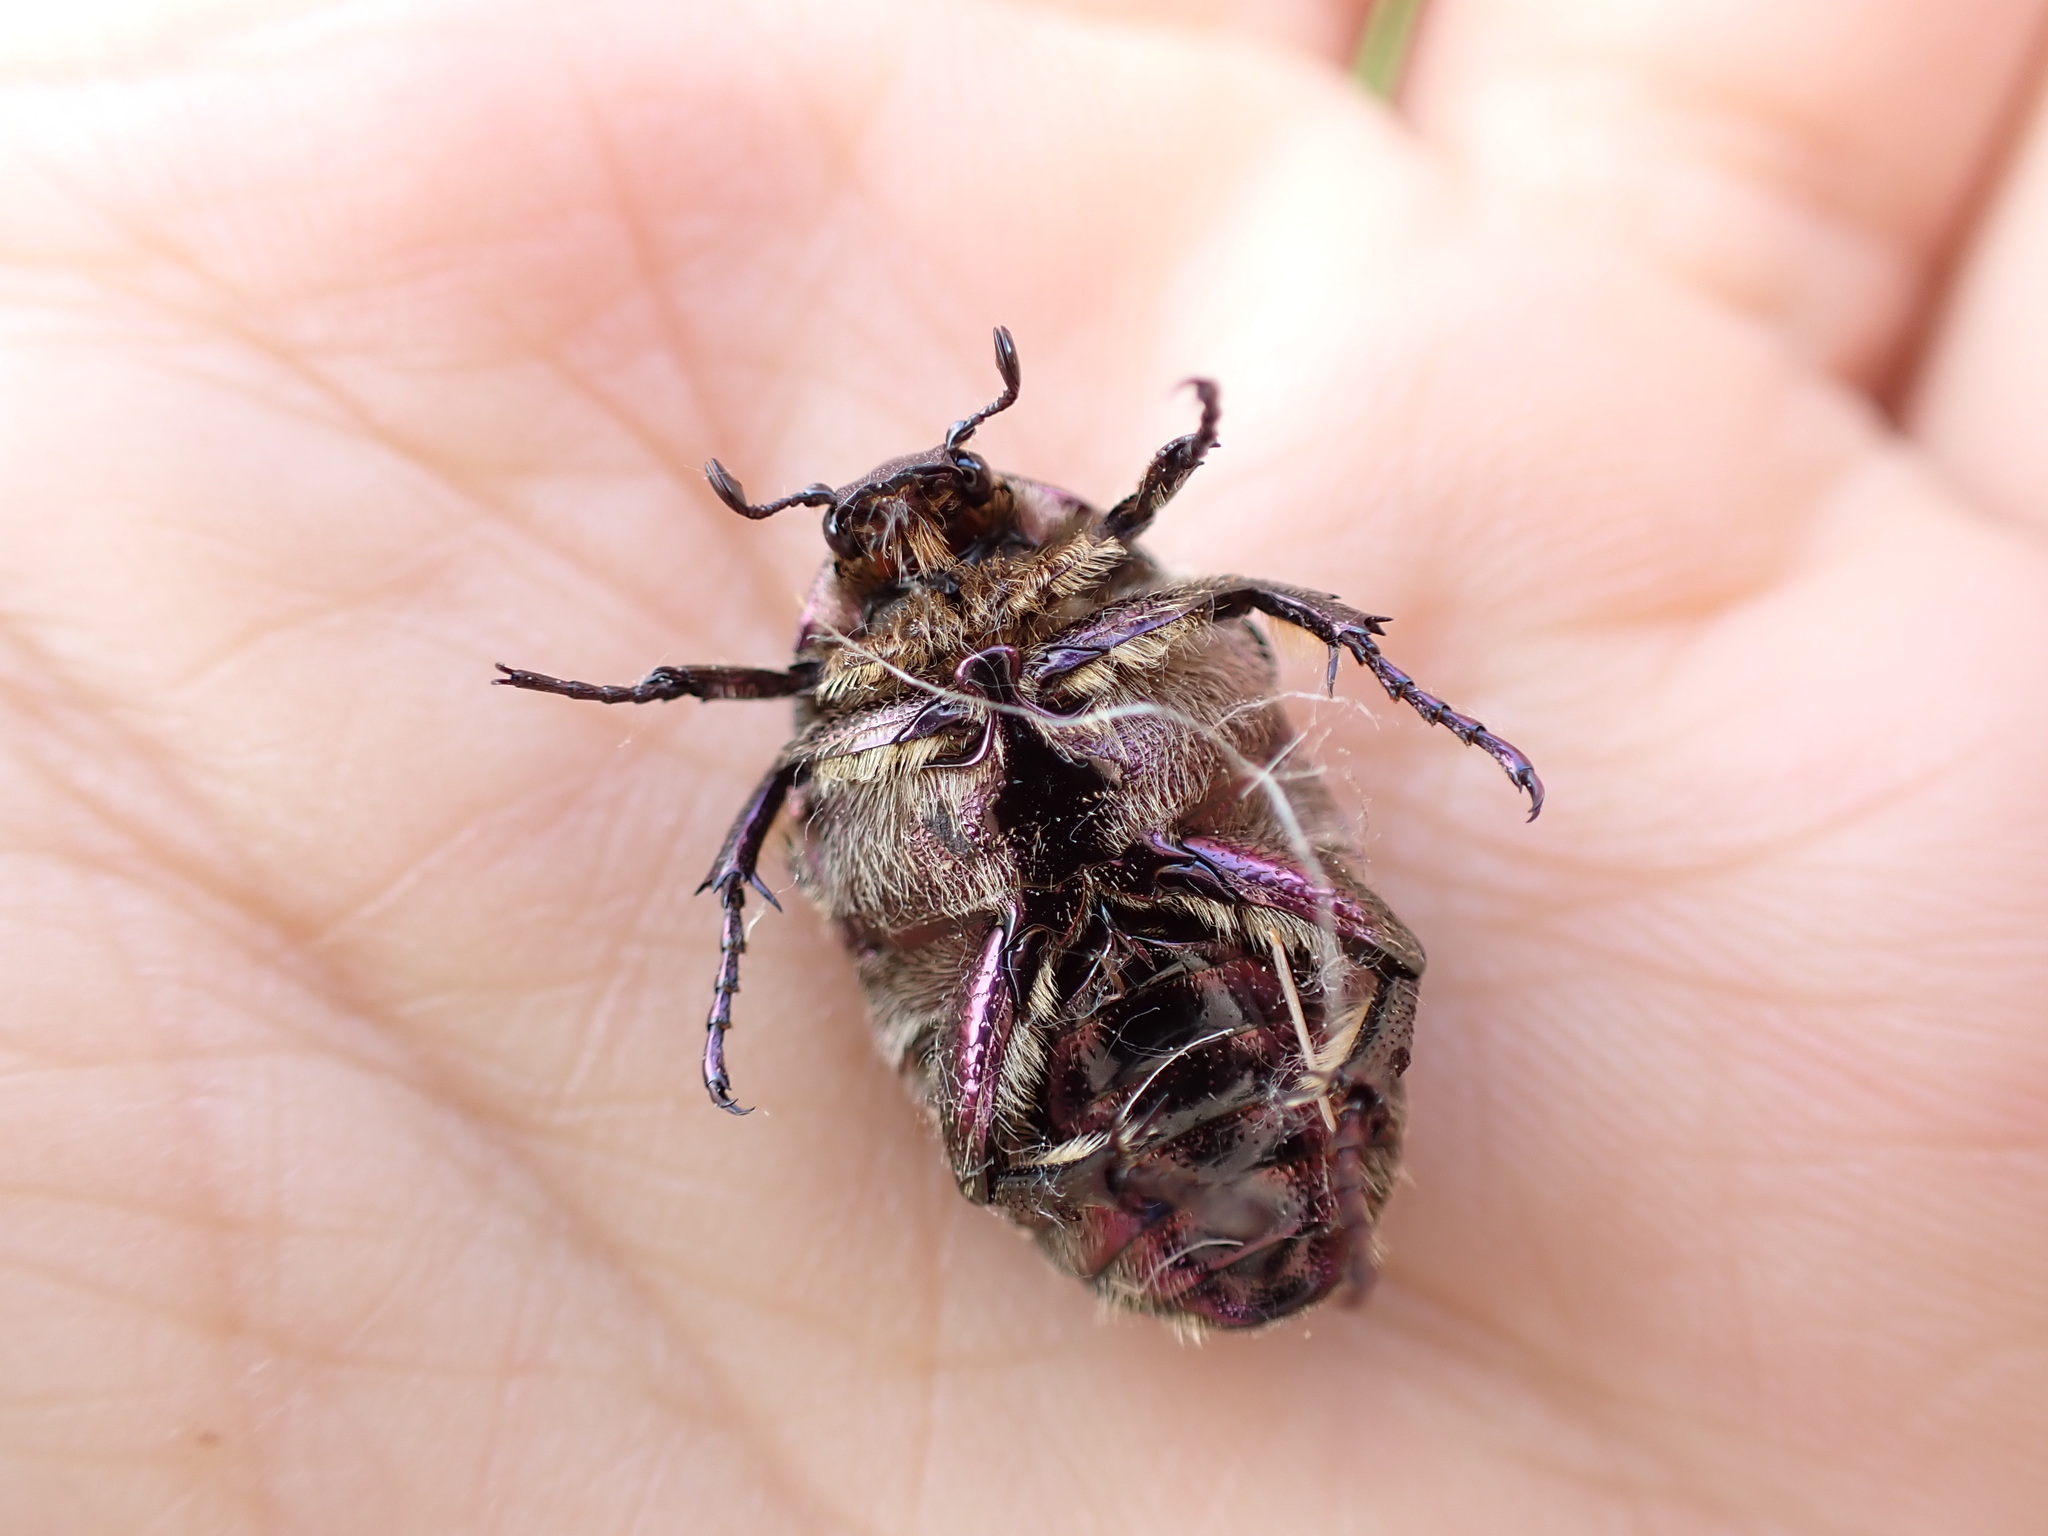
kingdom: Animalia
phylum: Arthropoda
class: Insecta
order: Coleoptera
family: Scarabaeidae
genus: Protaetia
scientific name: Protaetia cuprea
